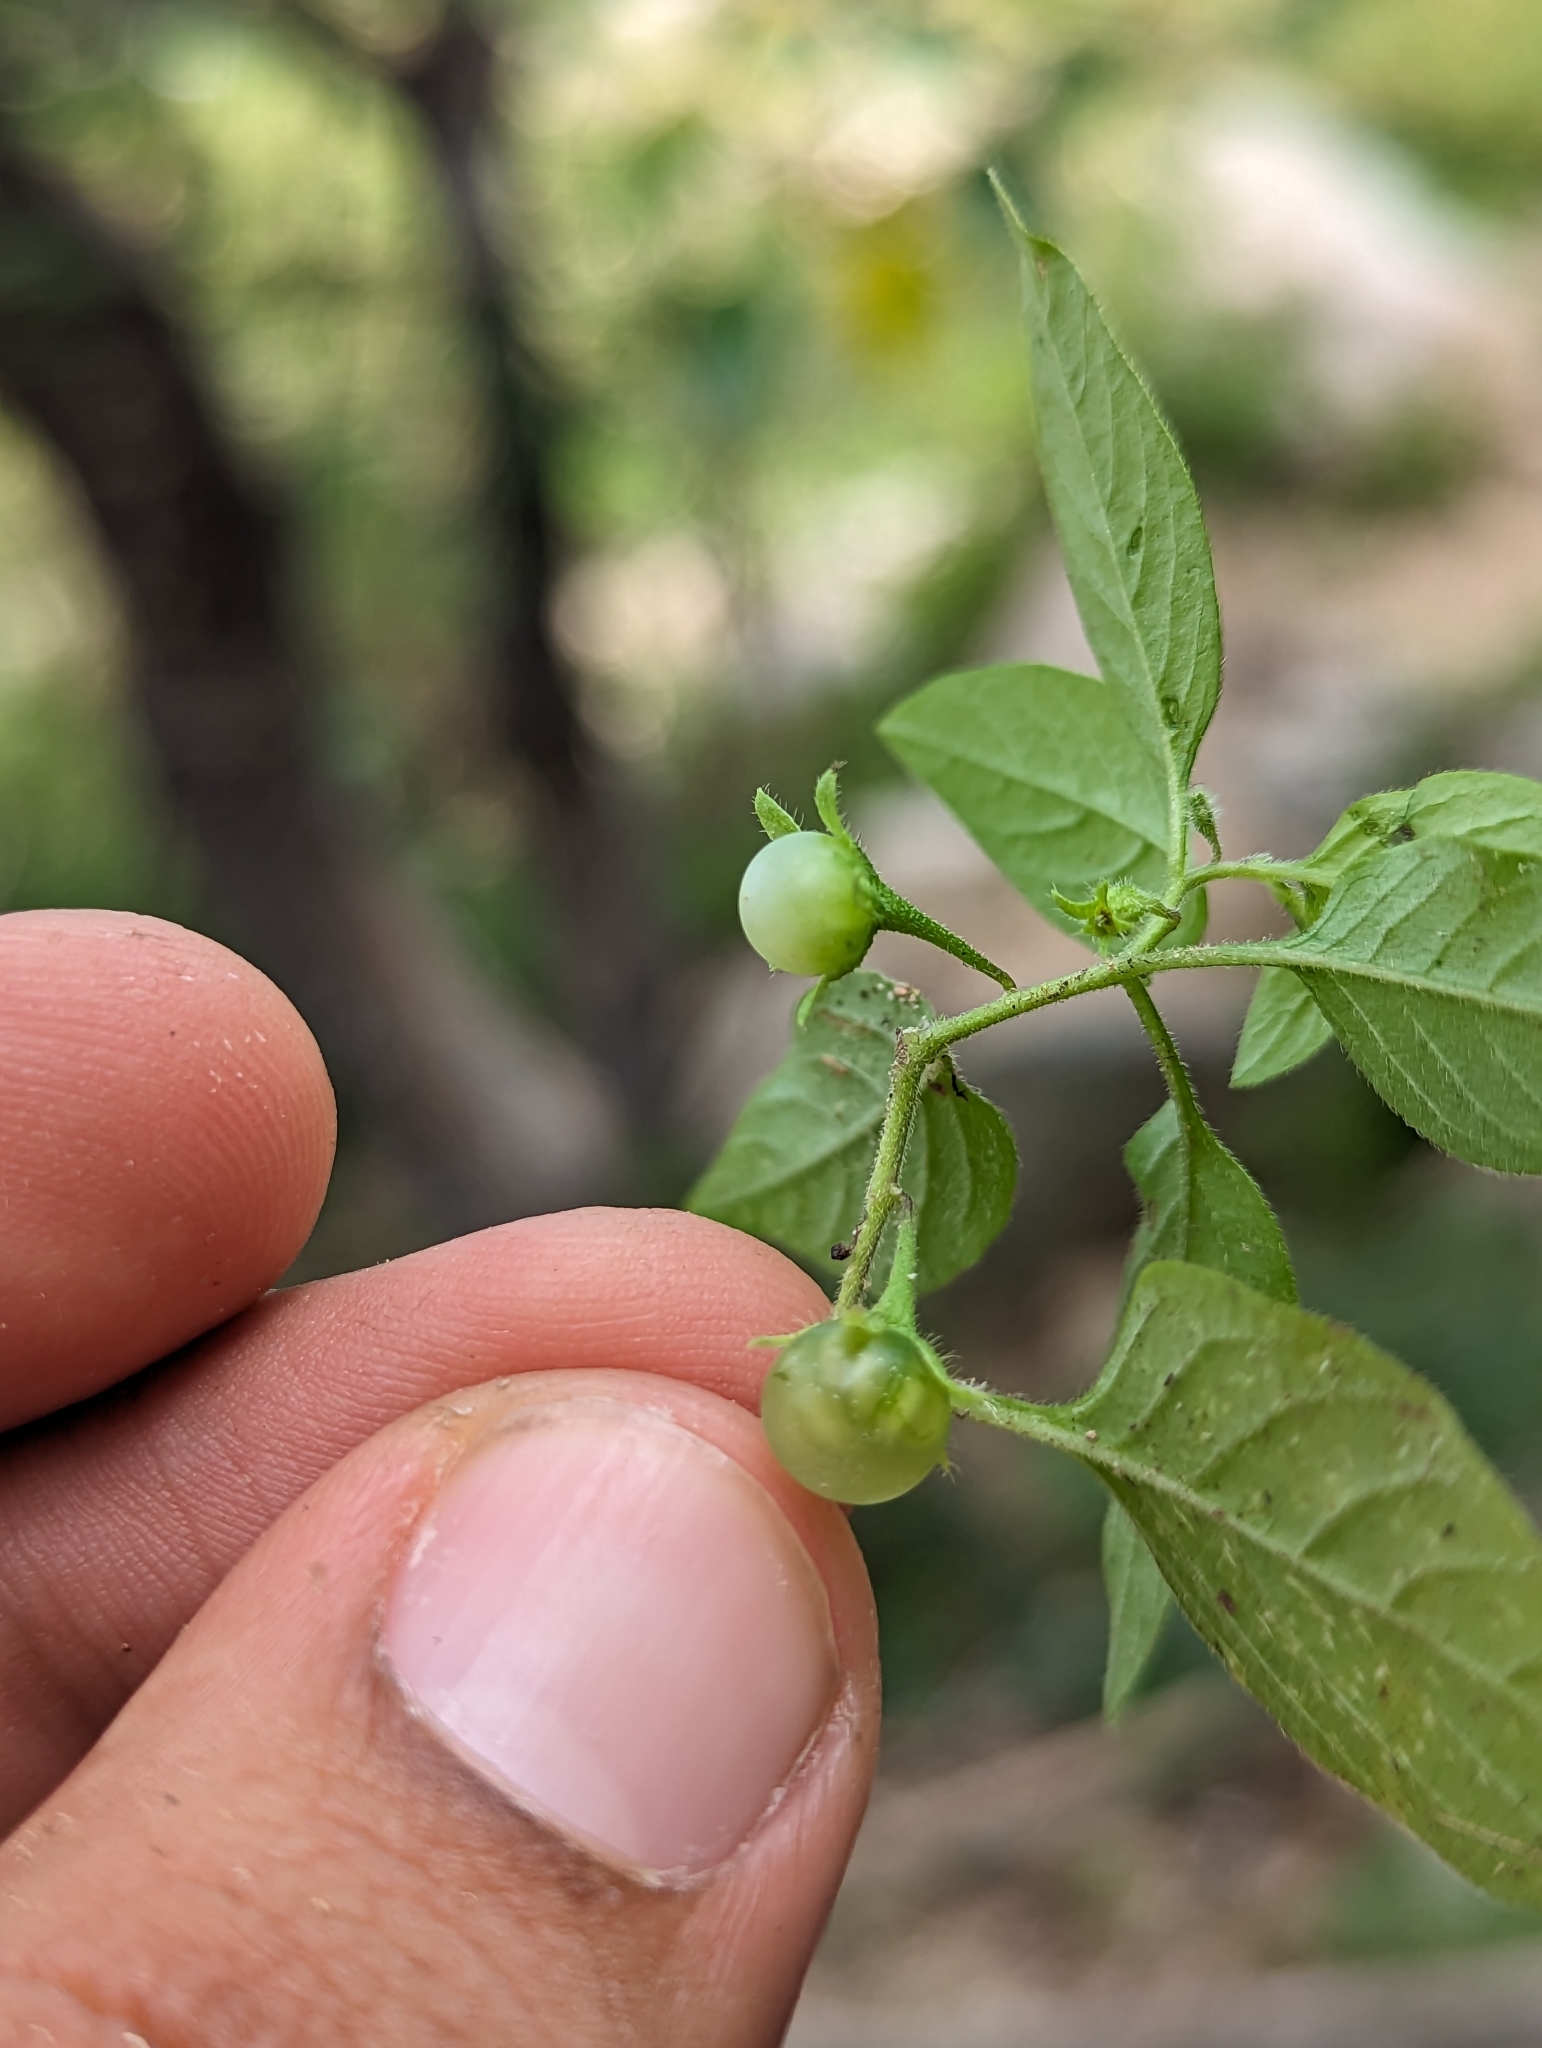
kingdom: Plantae
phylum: Tracheophyta
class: Magnoliopsida
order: Solanales
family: Solanaceae
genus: Solanum
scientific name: Solanum deflexum
